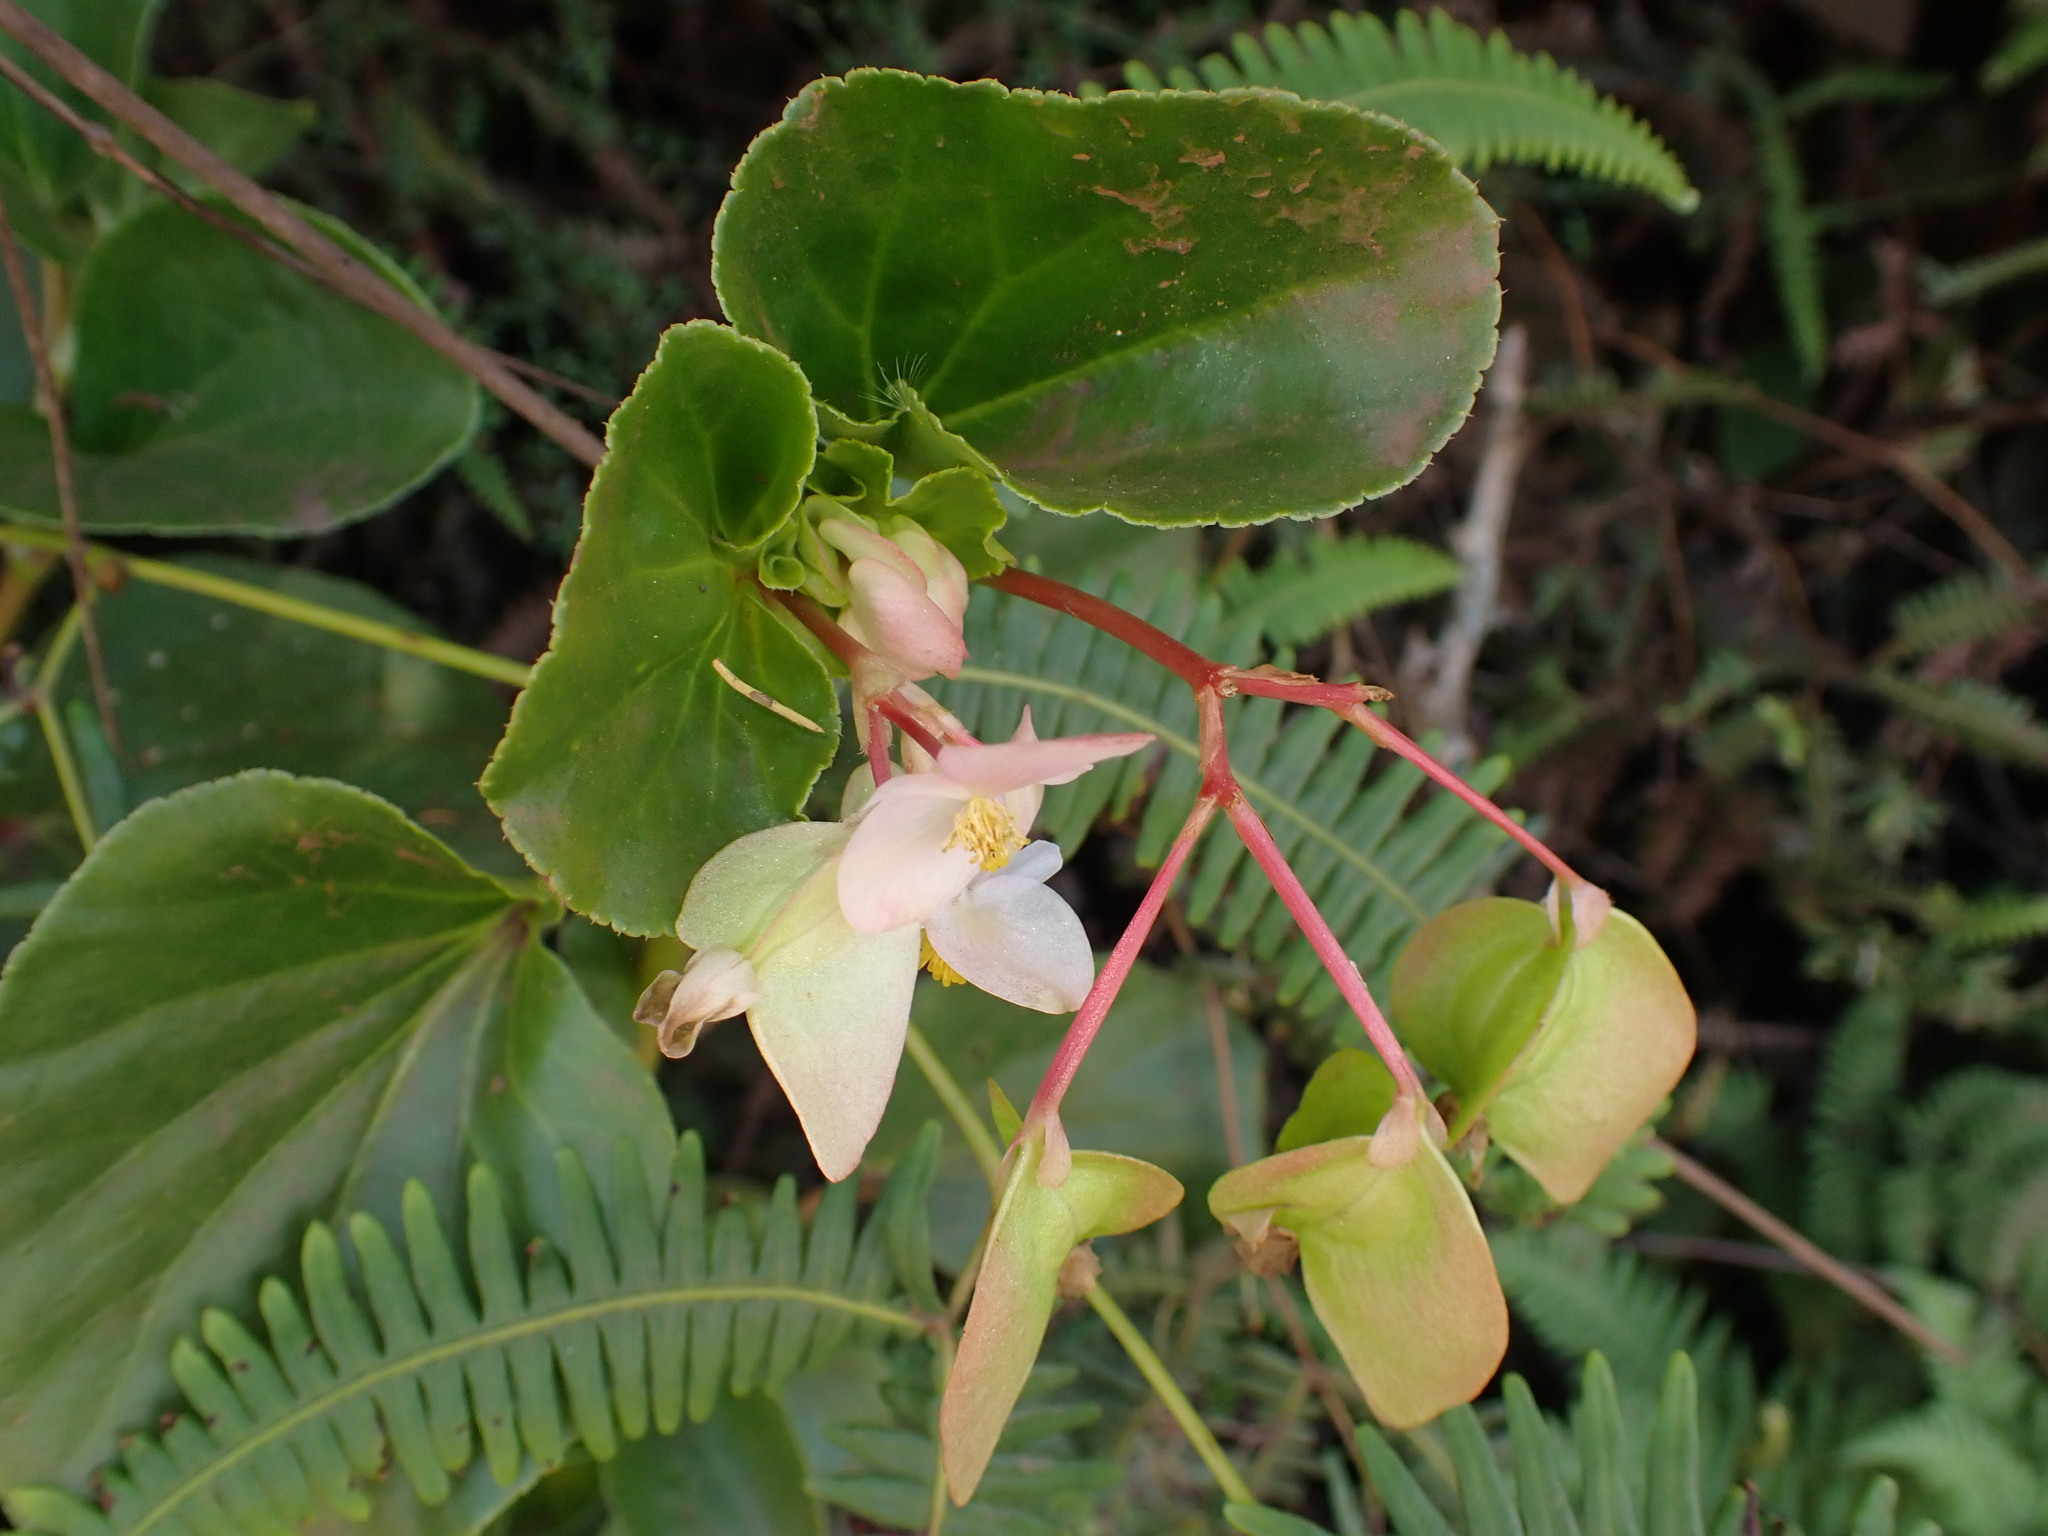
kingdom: Plantae
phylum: Tracheophyta
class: Magnoliopsida
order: Cucurbitales
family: Begoniaceae
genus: Begonia
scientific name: Begonia cucullata
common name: Clubbed begonia
